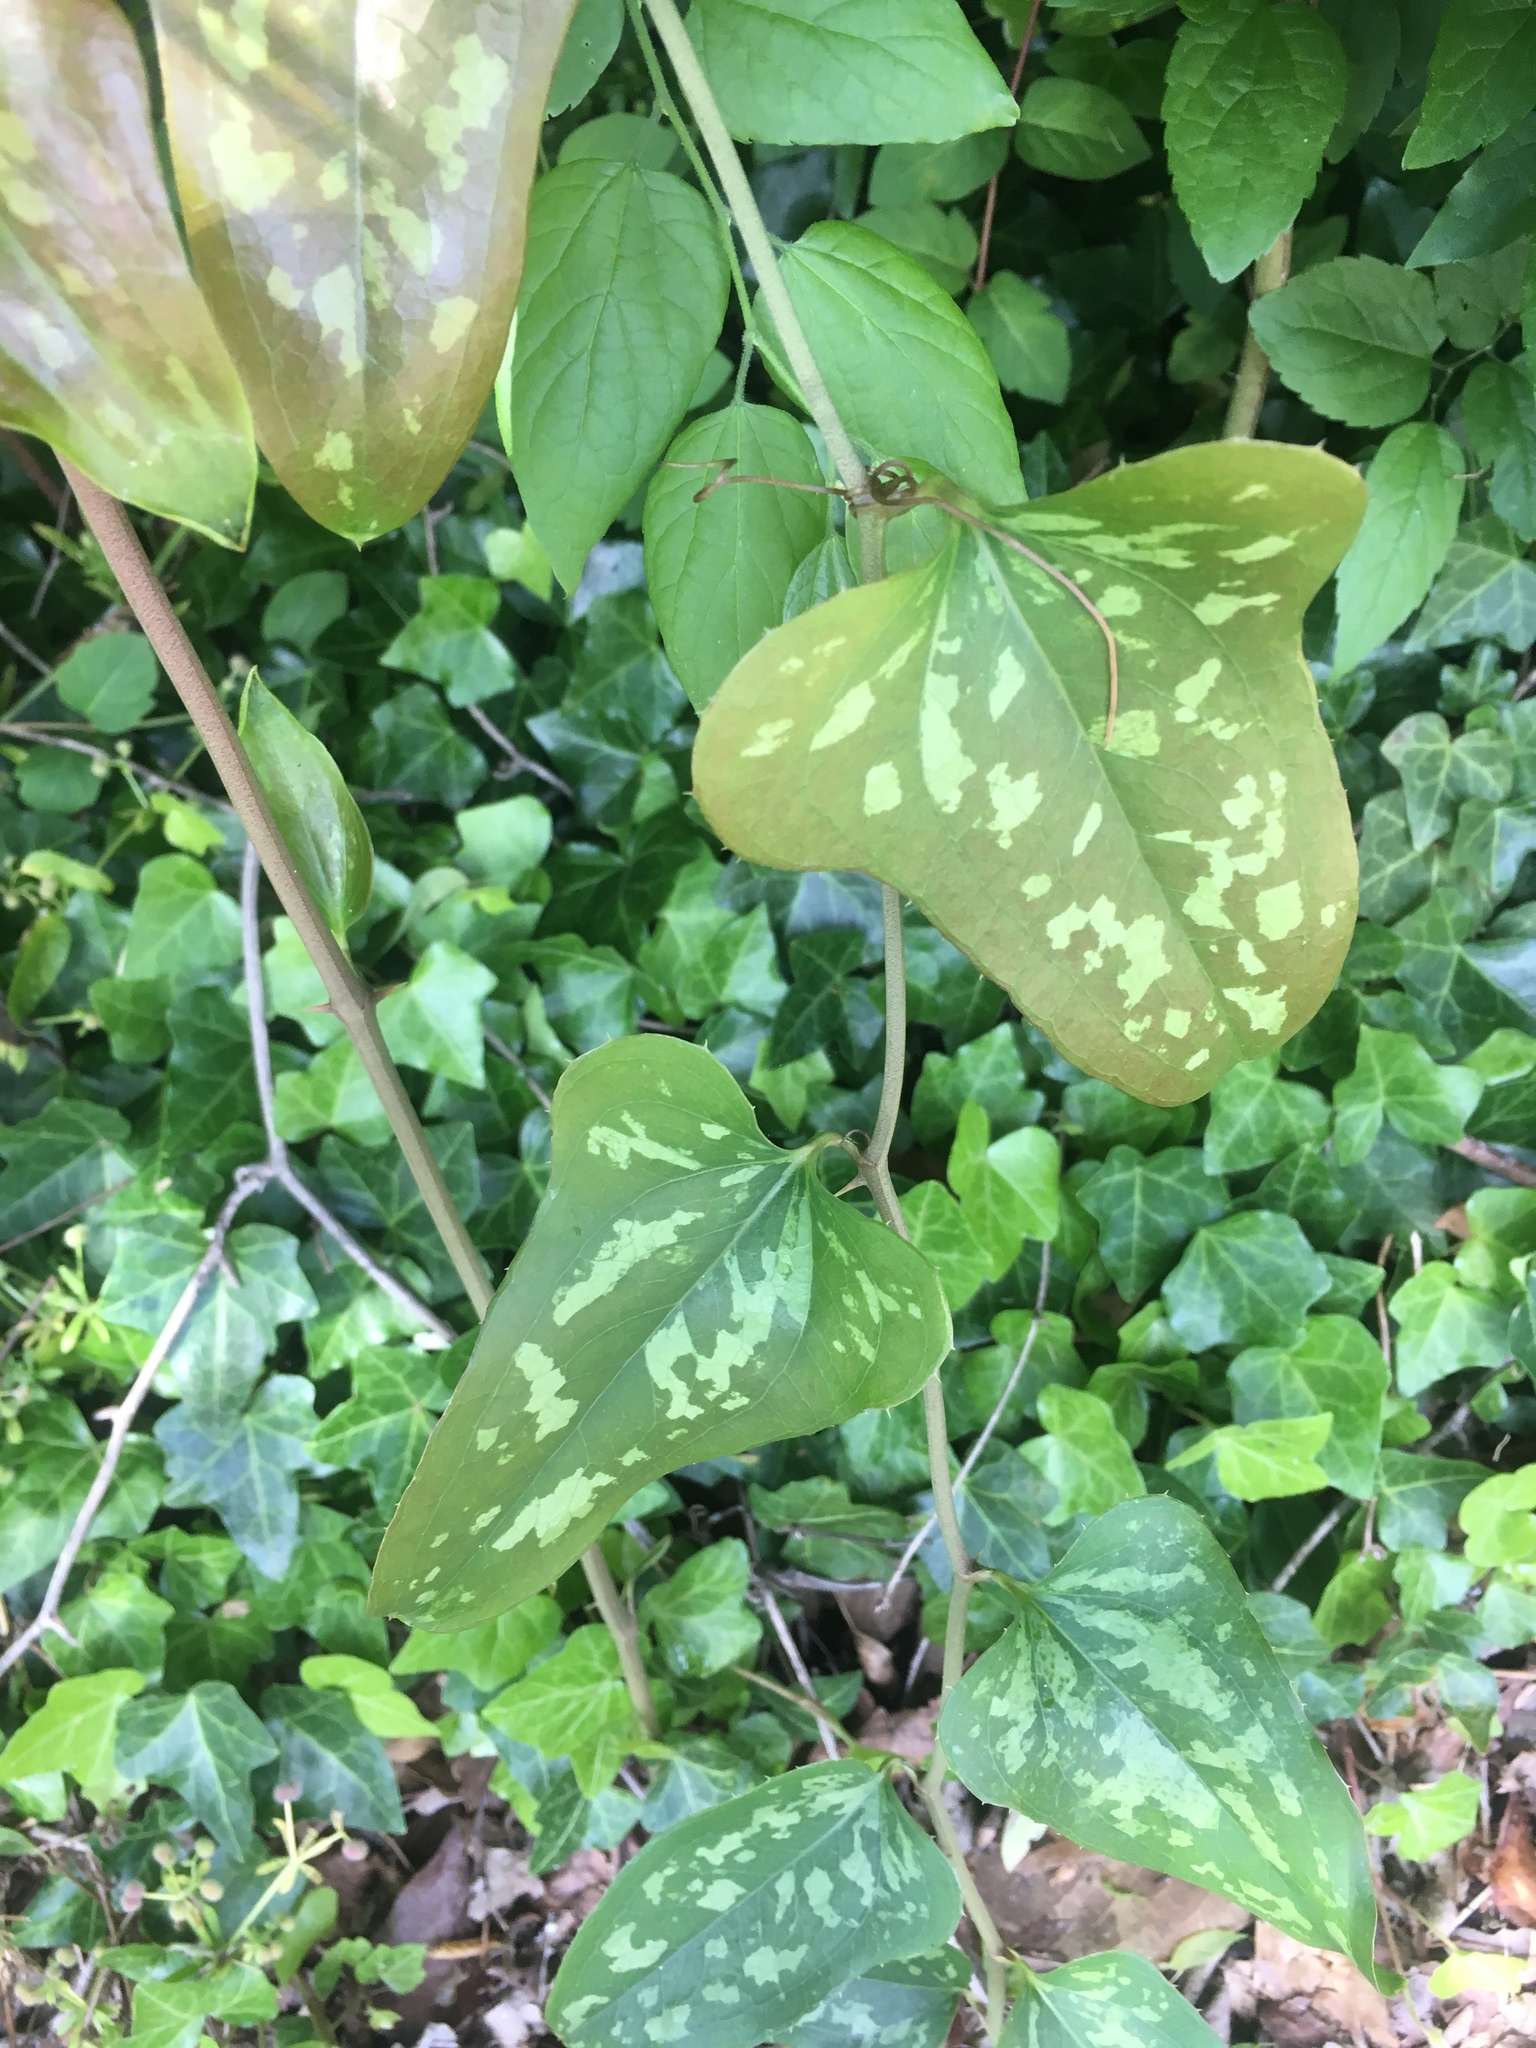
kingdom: Plantae
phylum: Tracheophyta
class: Liliopsida
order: Liliales
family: Smilacaceae
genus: Smilax
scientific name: Smilax bona-nox
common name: Catbrier
